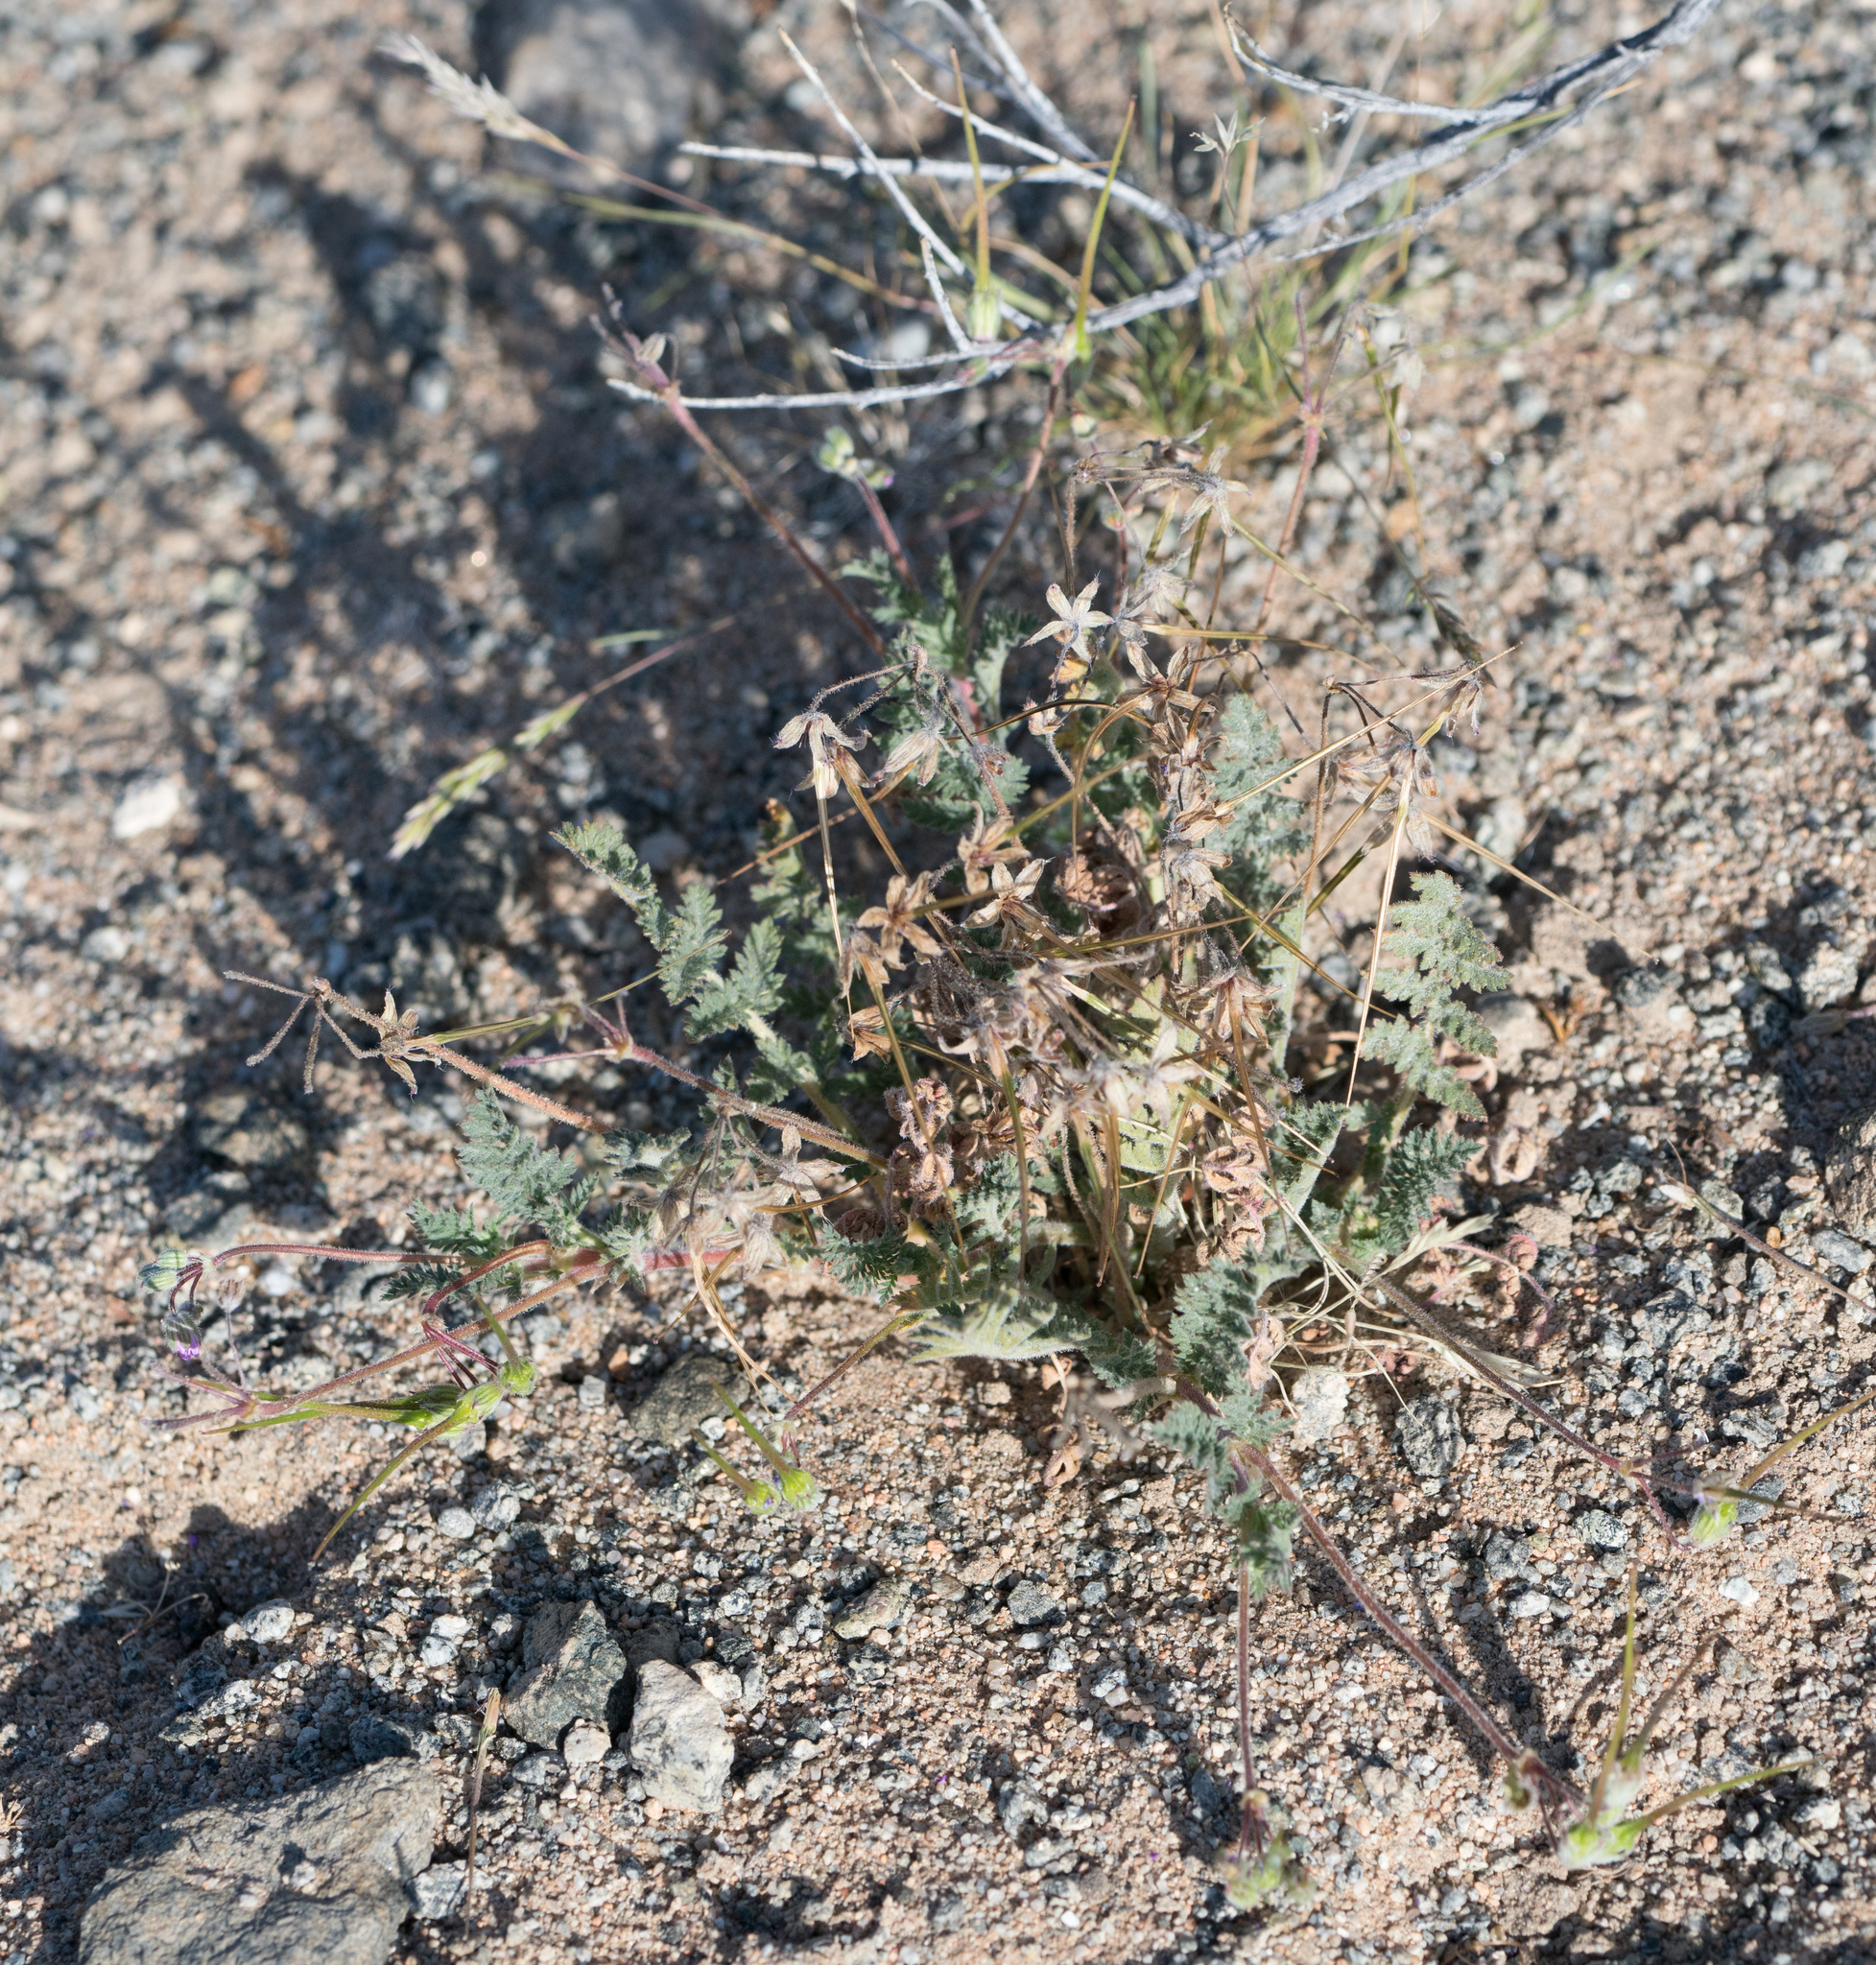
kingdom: Plantae
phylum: Tracheophyta
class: Magnoliopsida
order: Geraniales
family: Geraniaceae
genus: Erodium
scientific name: Erodium cicutarium
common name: Common stork's-bill
